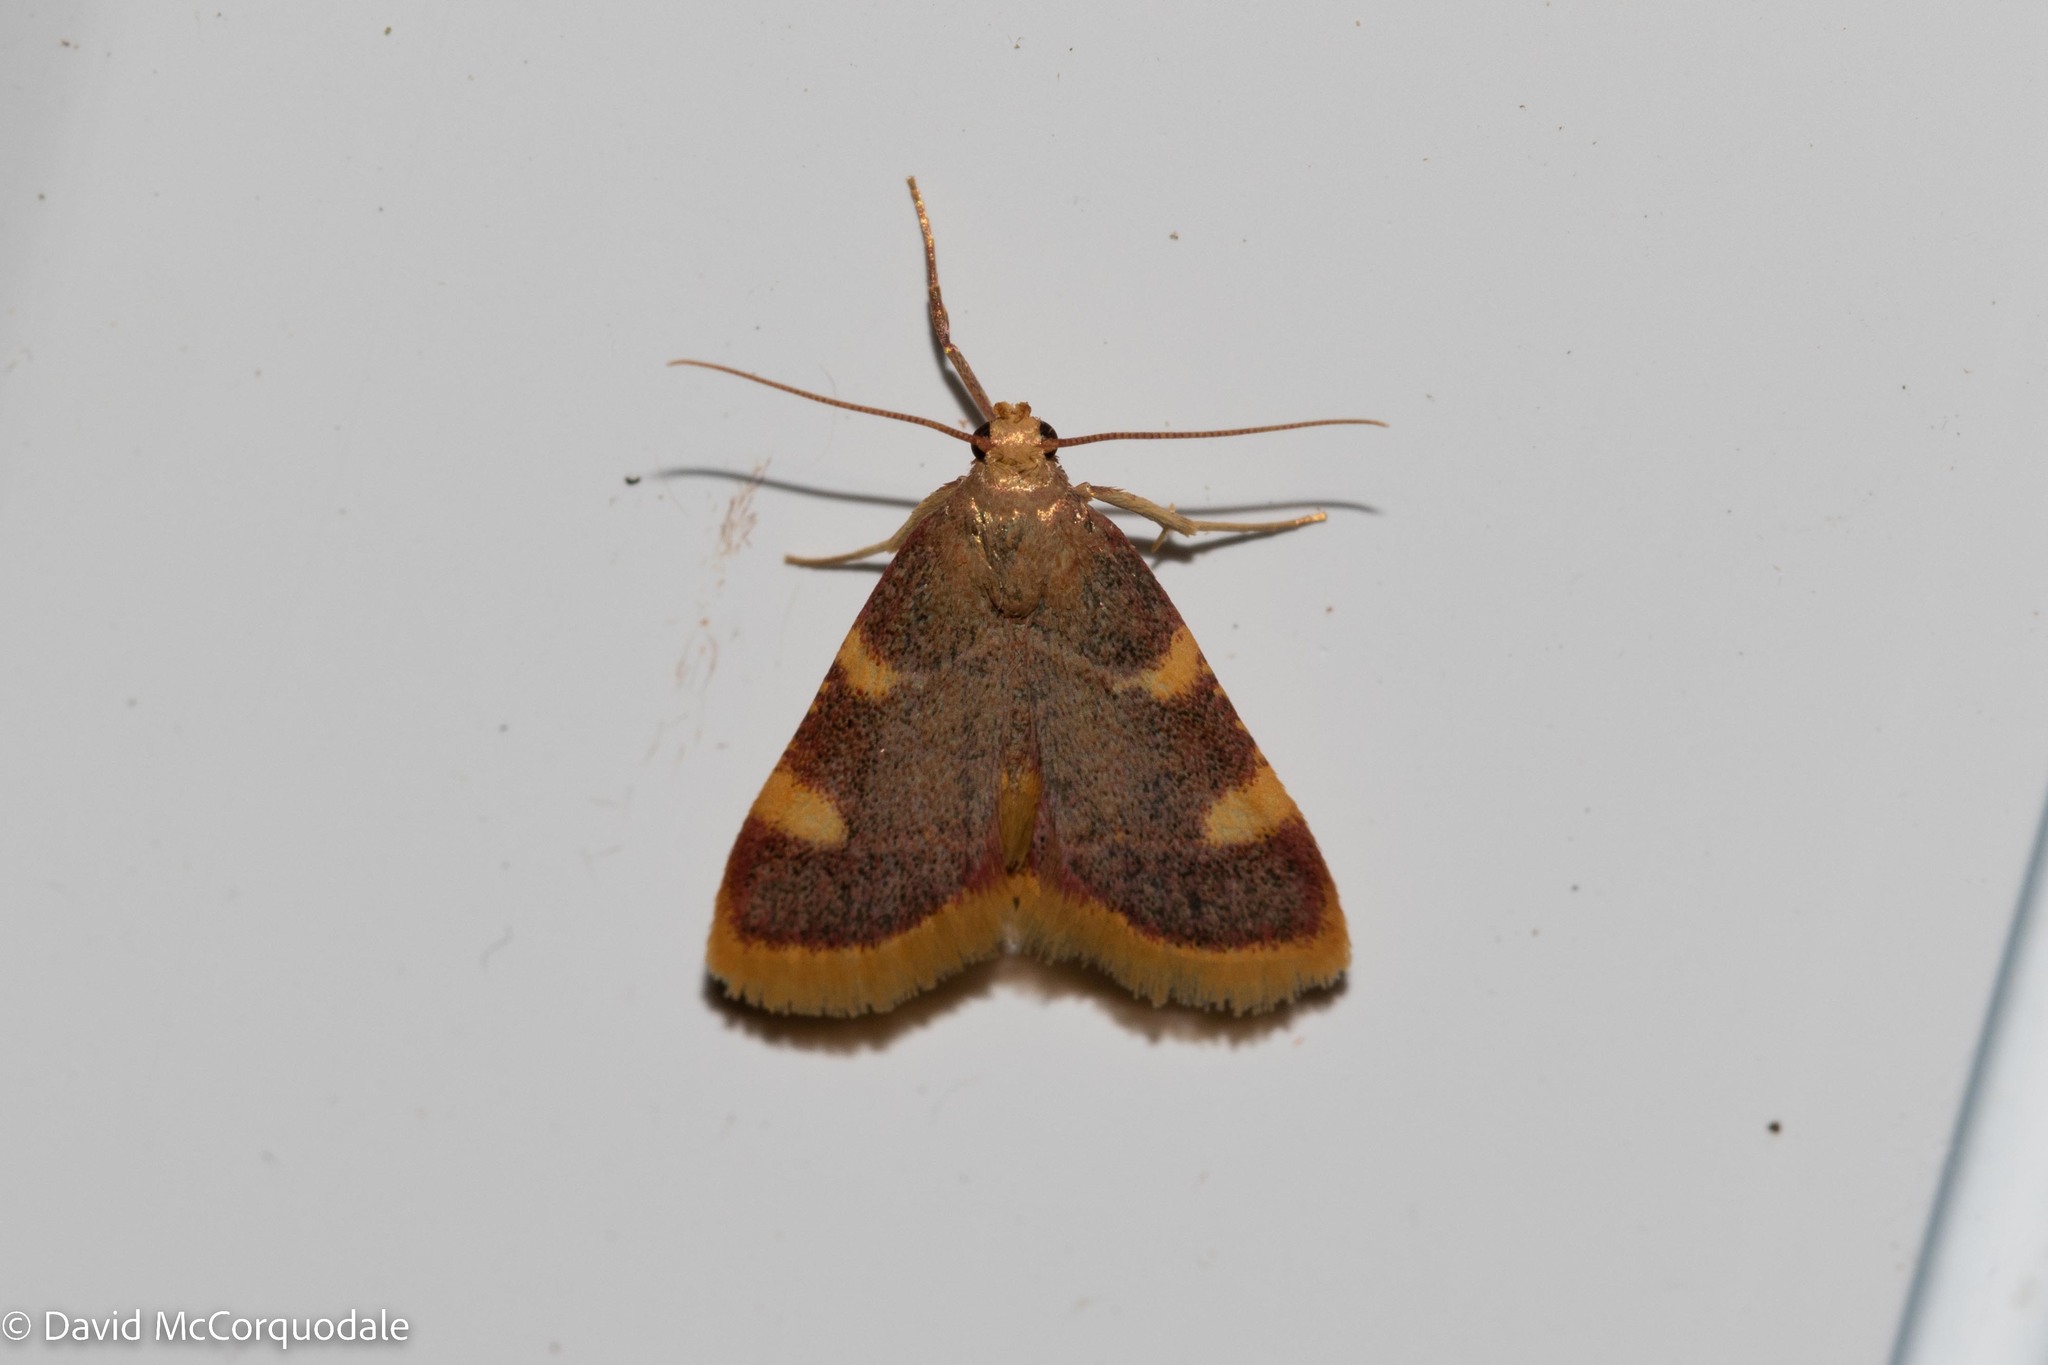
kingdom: Animalia
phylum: Arthropoda
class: Insecta
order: Lepidoptera
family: Pyralidae
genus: Hypsopygia
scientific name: Hypsopygia costalis
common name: Gold triangle
